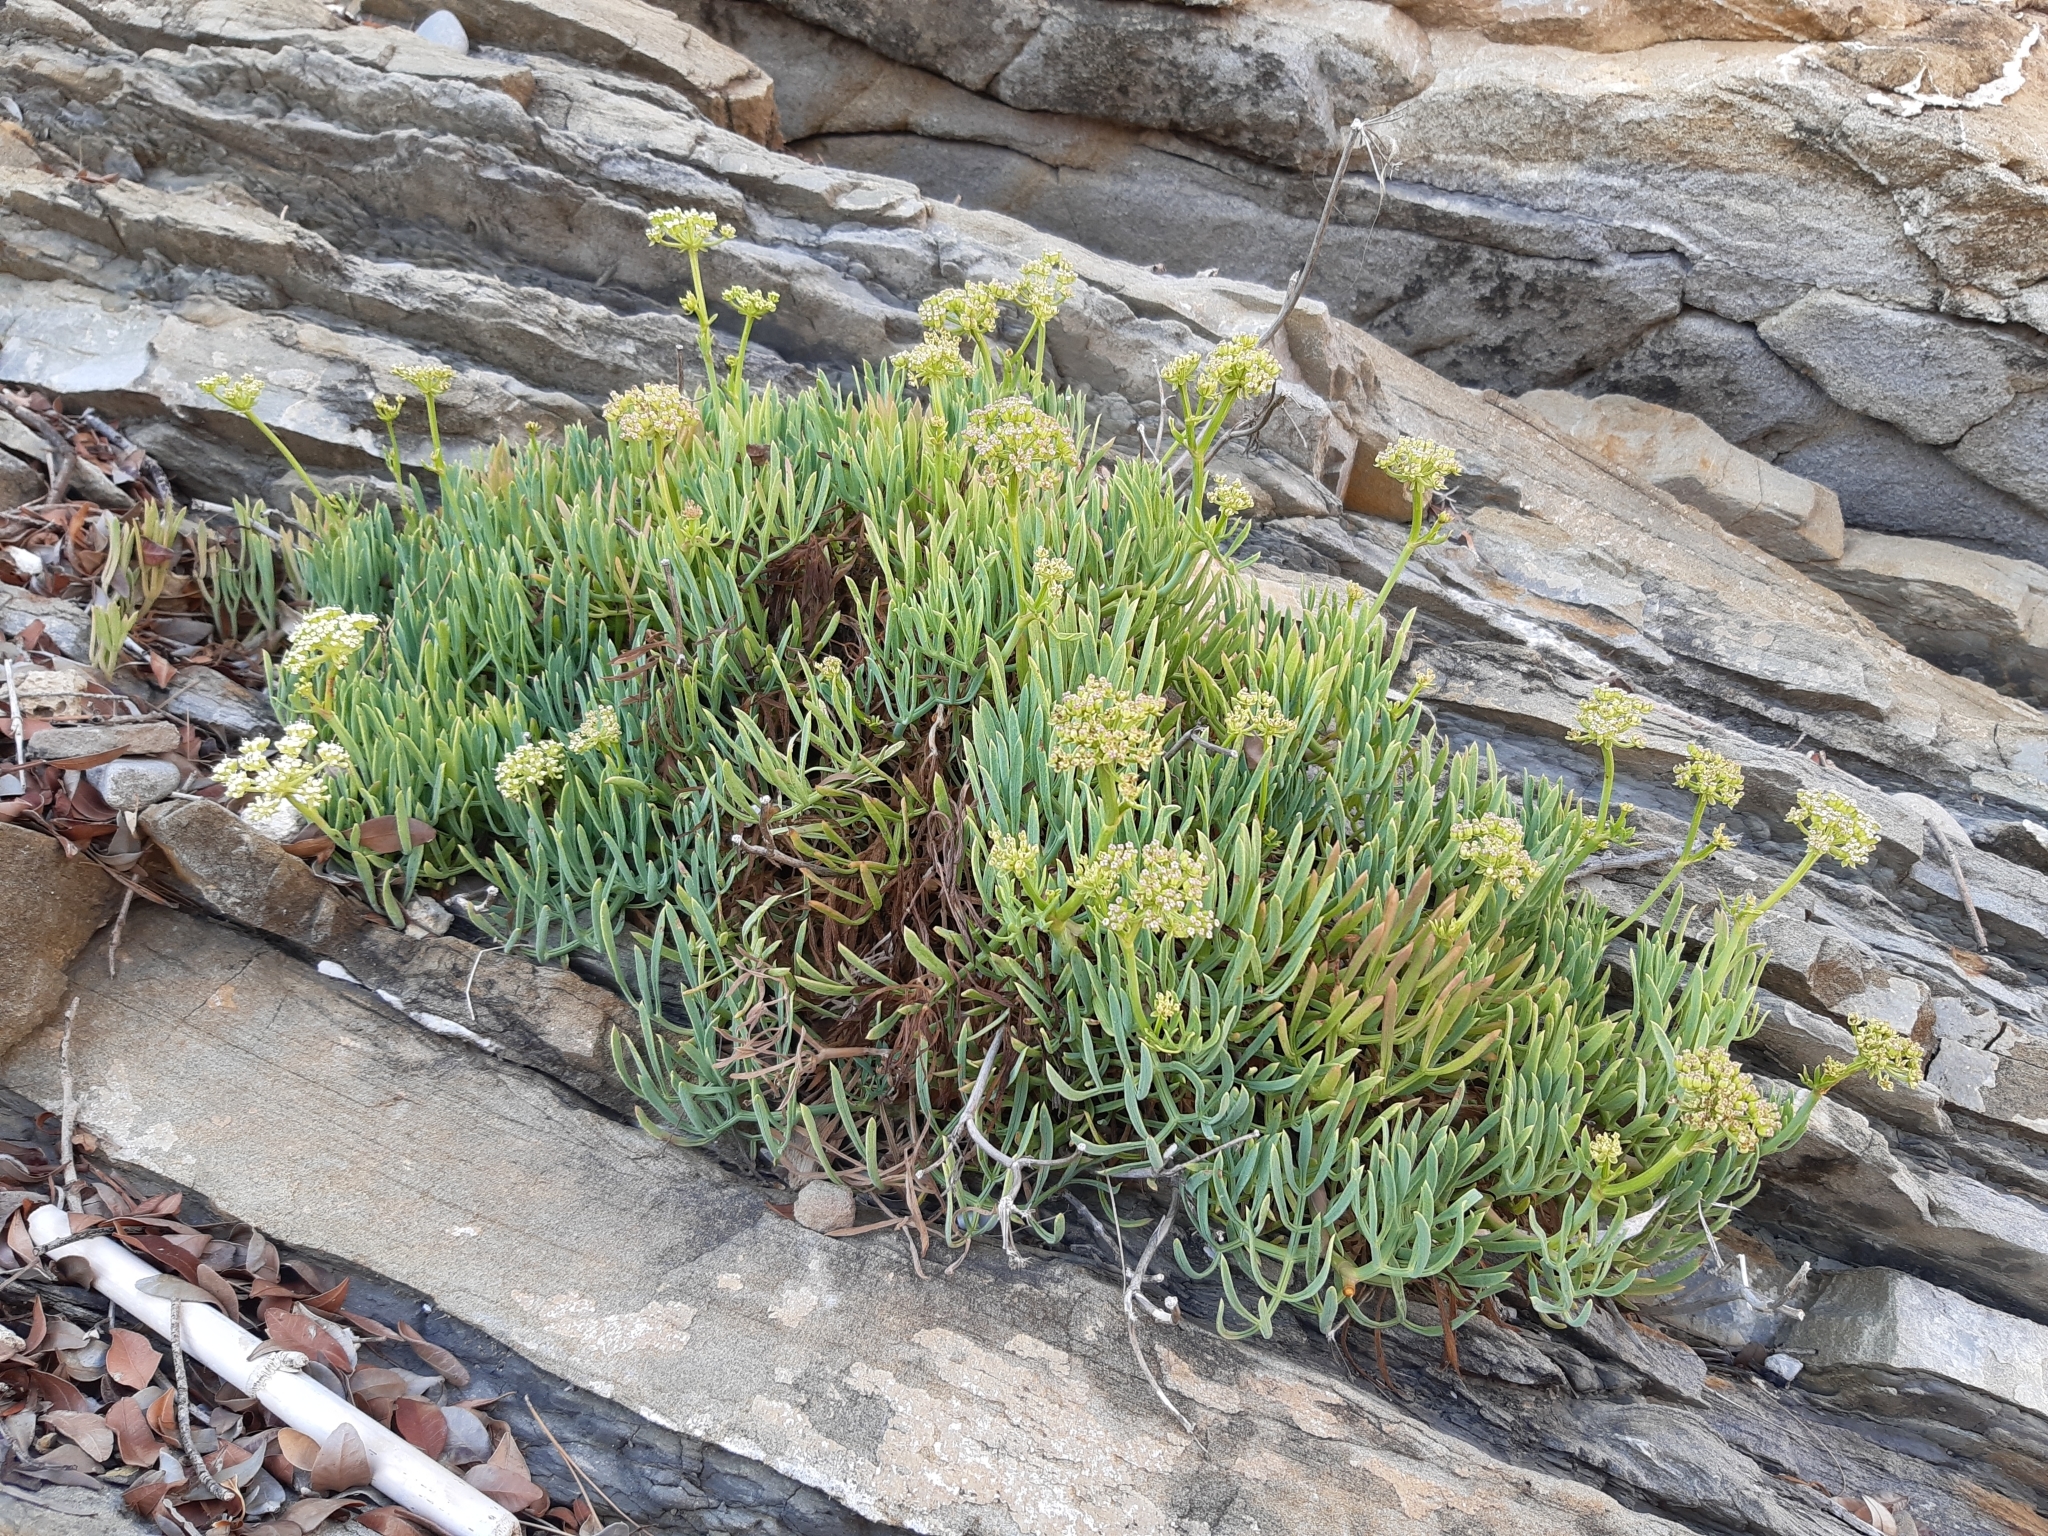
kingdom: Plantae
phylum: Tracheophyta
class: Magnoliopsida
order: Apiales
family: Apiaceae
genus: Crithmum
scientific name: Crithmum maritimum
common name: Rock samphire
